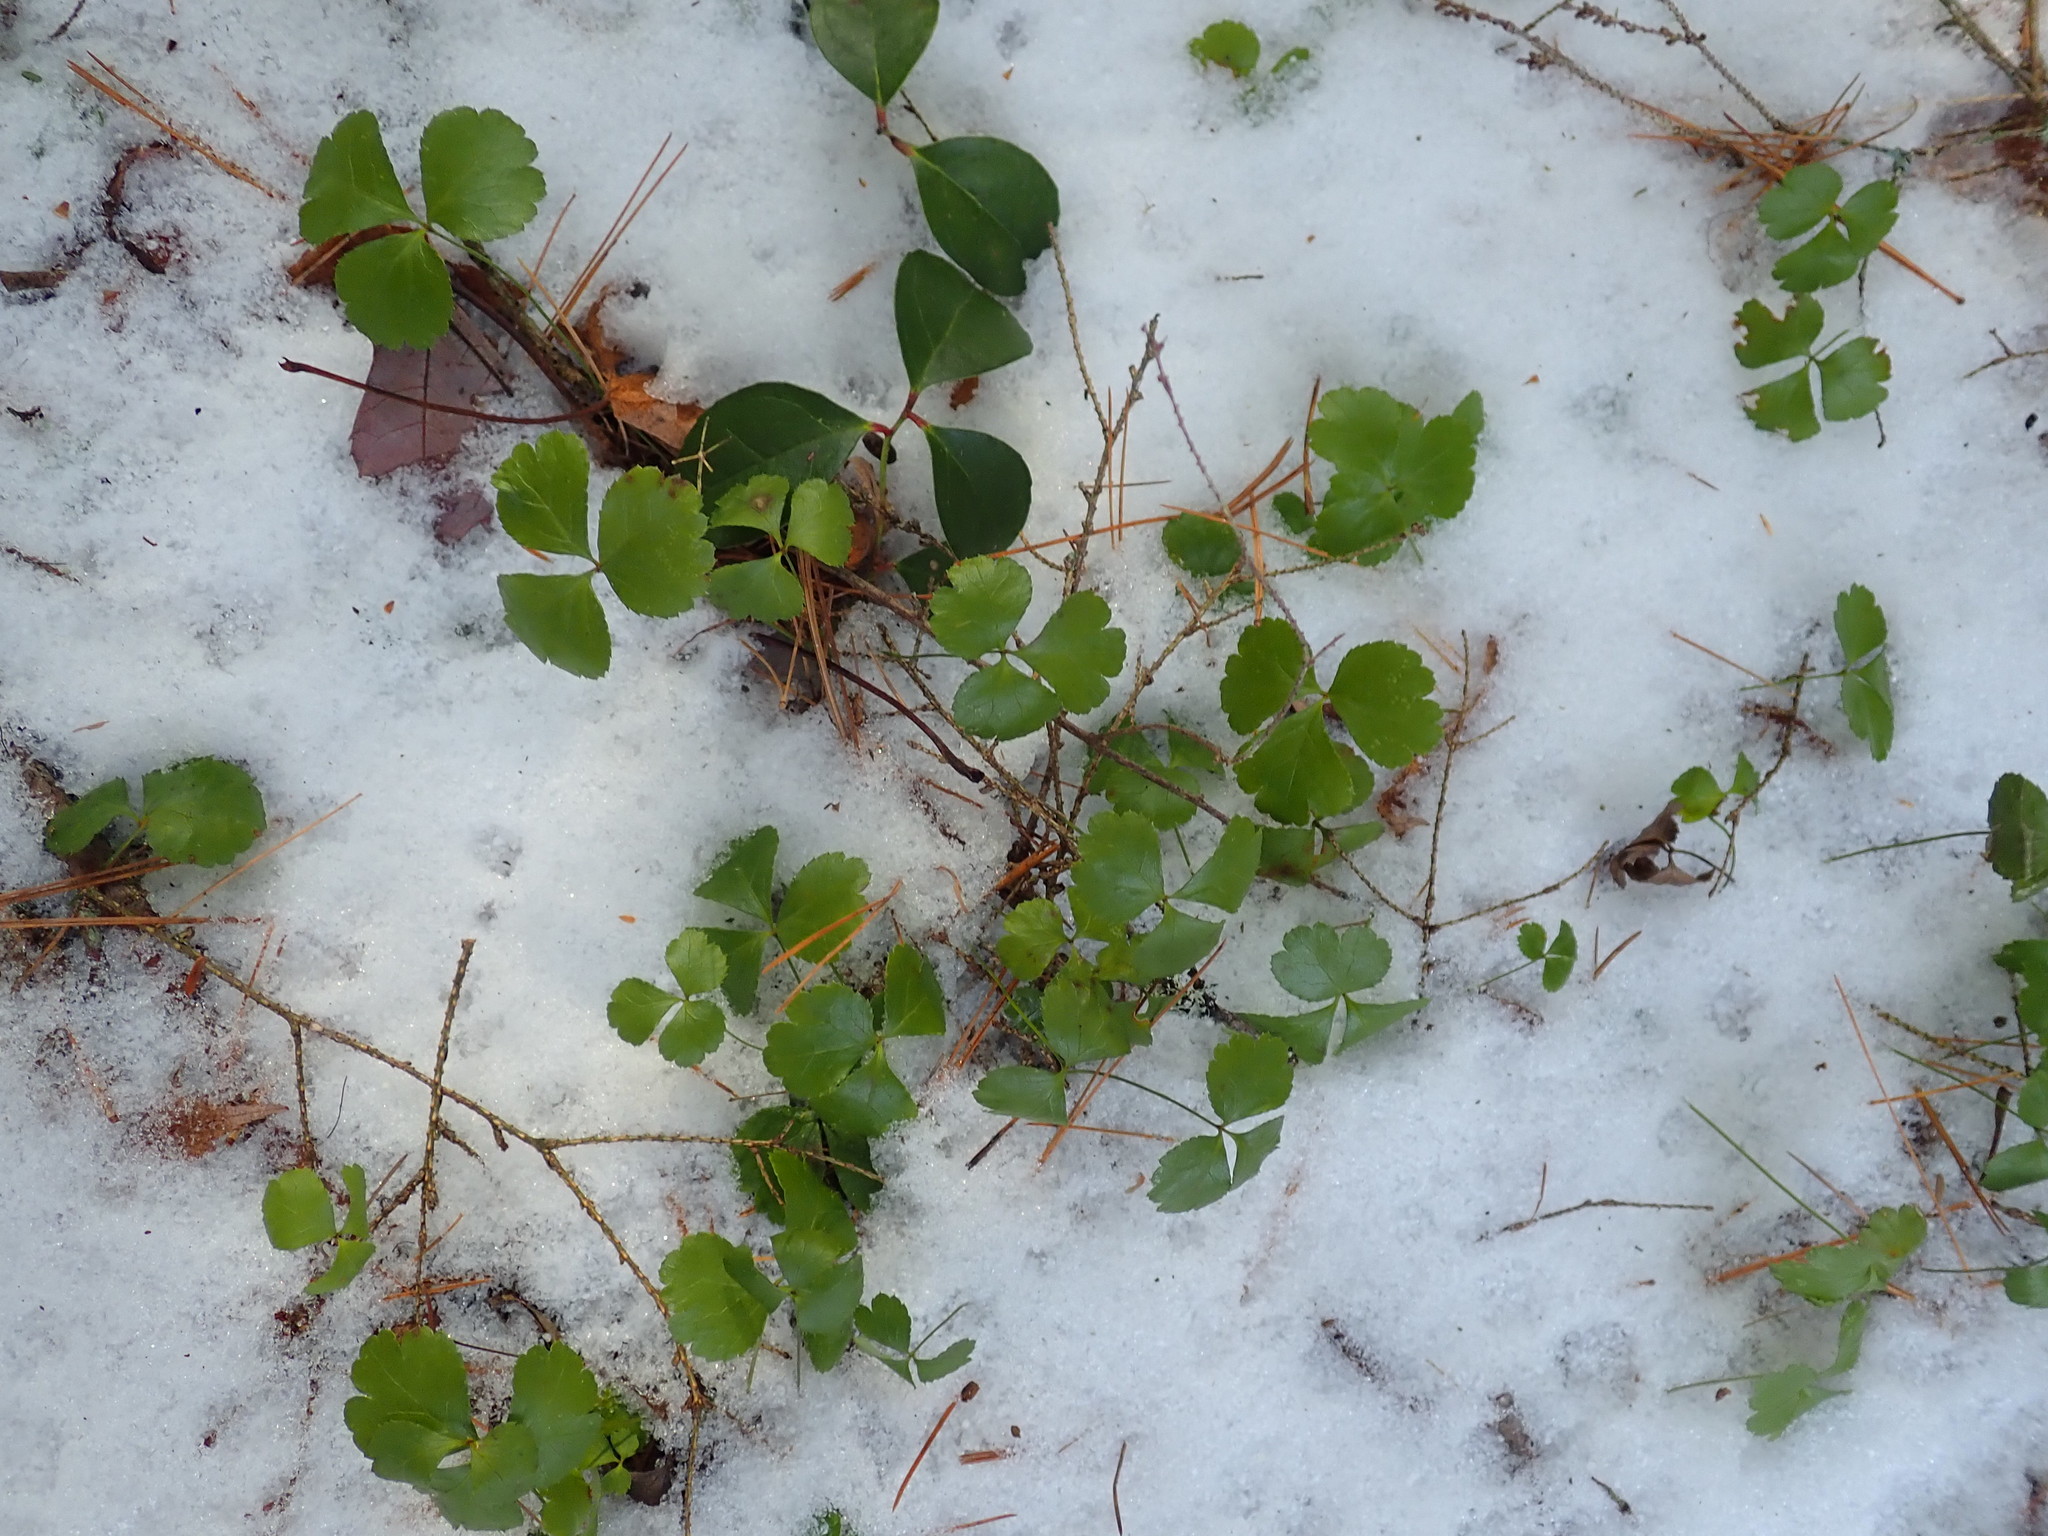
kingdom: Plantae
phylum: Tracheophyta
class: Magnoliopsida
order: Ranunculales
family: Ranunculaceae
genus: Coptis
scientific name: Coptis trifolia
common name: Canker-root
